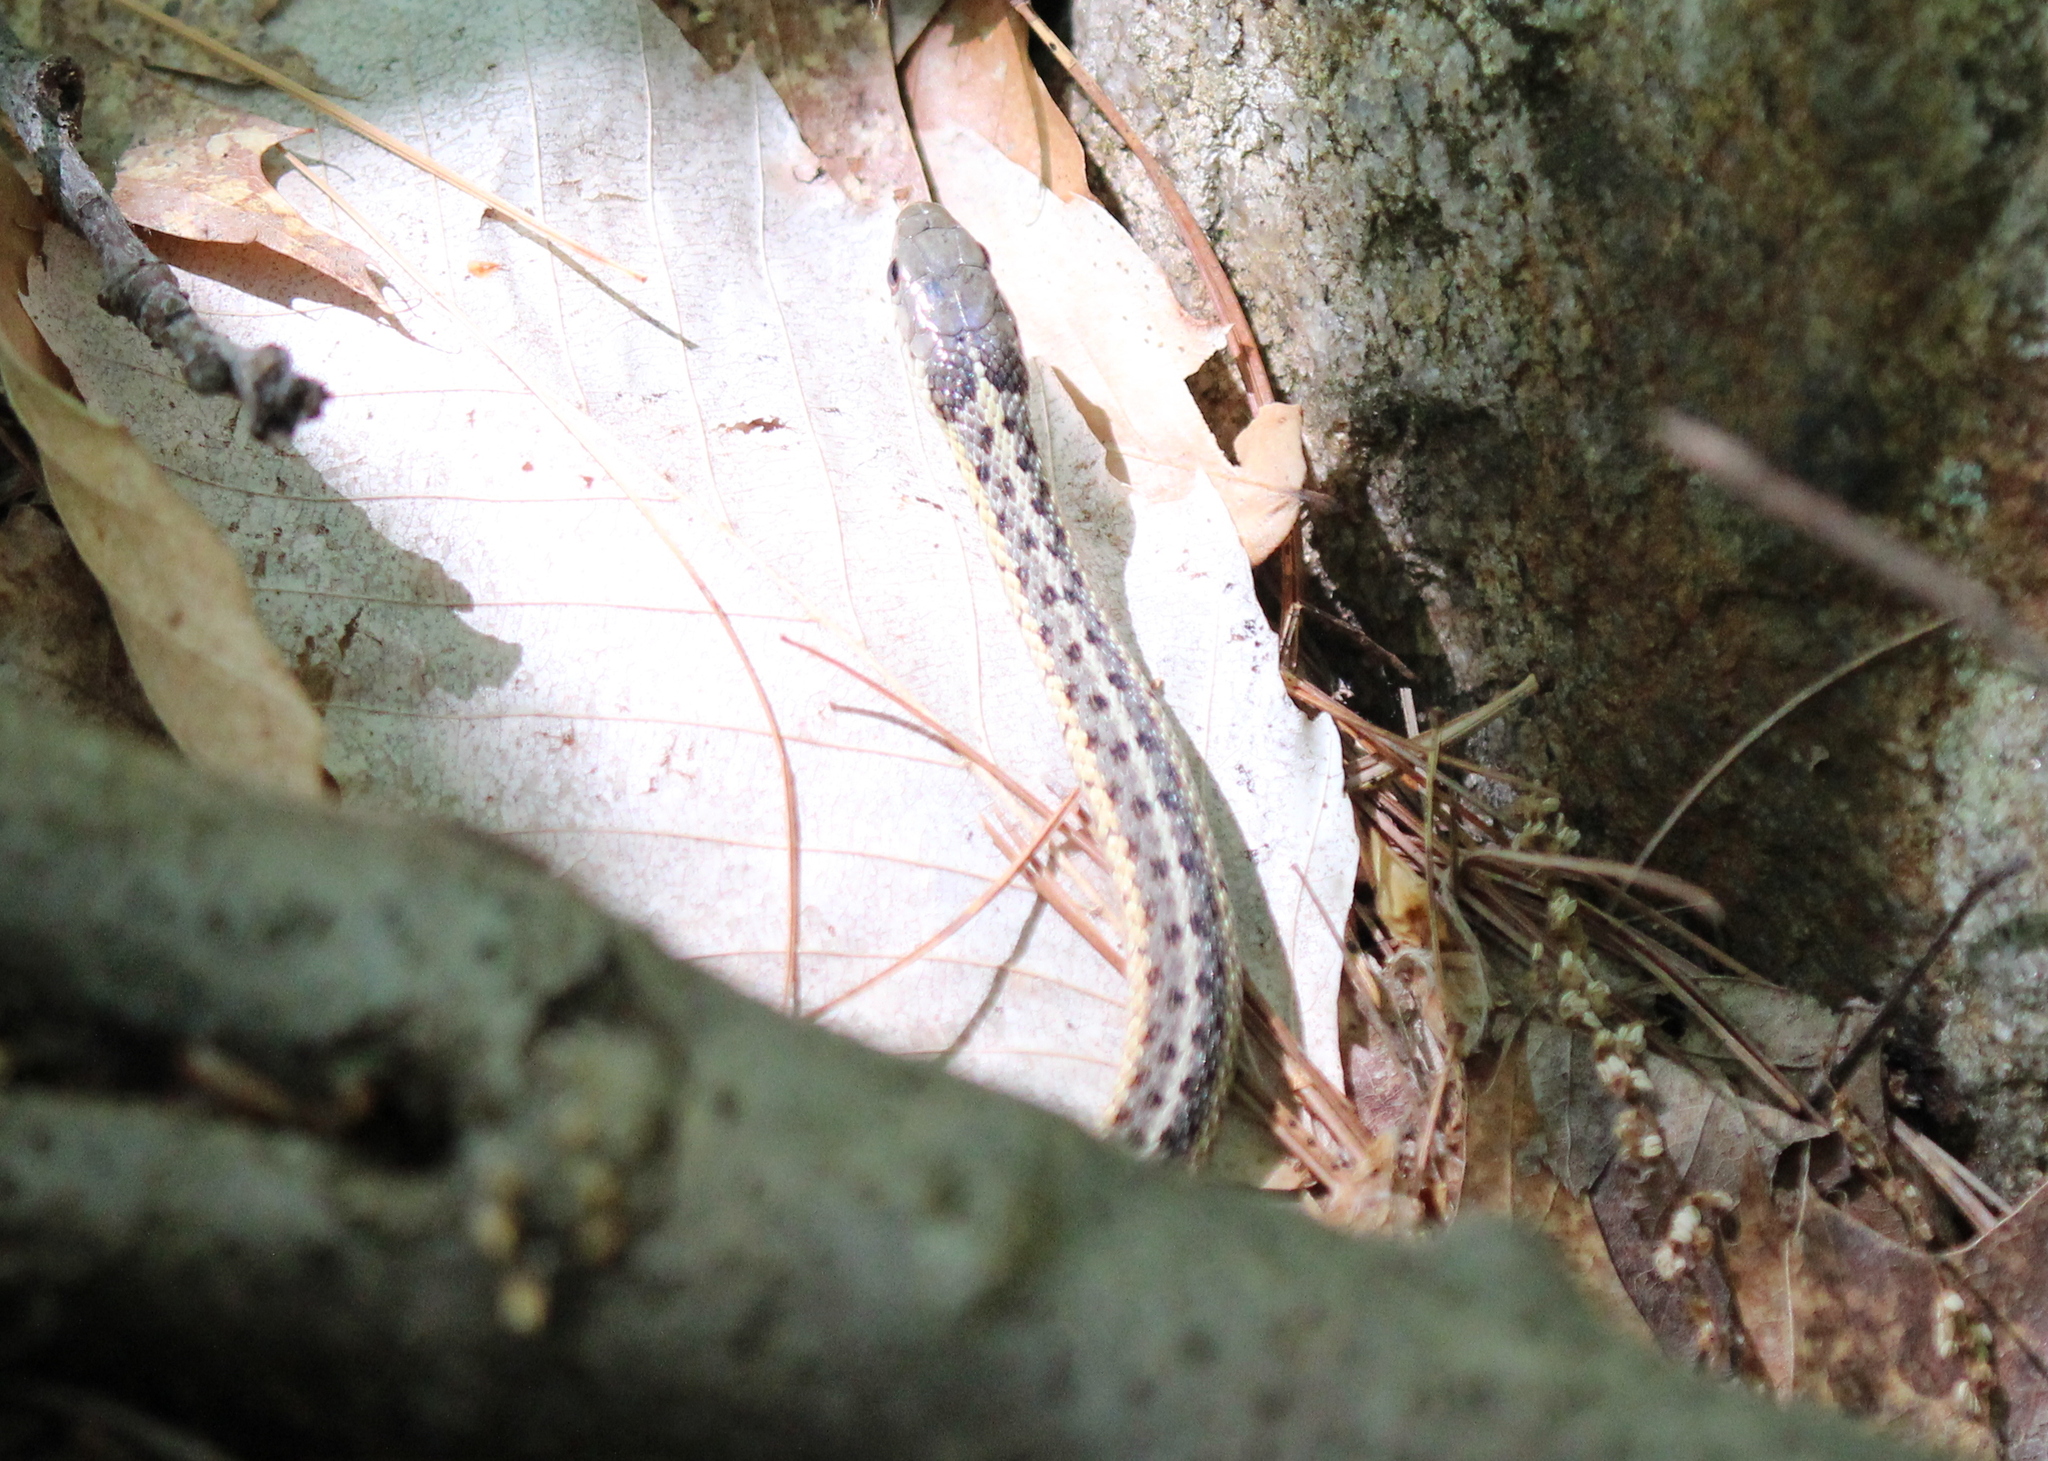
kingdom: Animalia
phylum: Chordata
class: Squamata
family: Colubridae
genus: Thamnophis
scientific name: Thamnophis sirtalis
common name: Common garter snake
